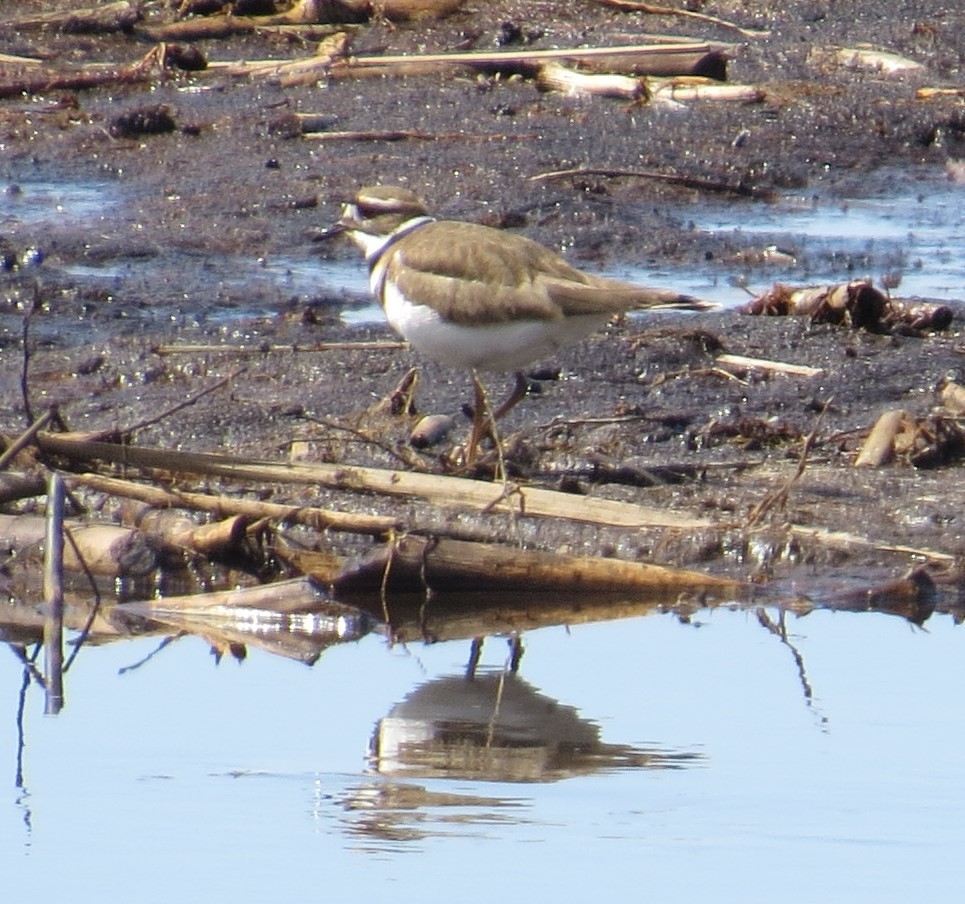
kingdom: Animalia
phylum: Chordata
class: Aves
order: Charadriiformes
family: Charadriidae
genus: Charadrius
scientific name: Charadrius vociferus
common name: Killdeer
